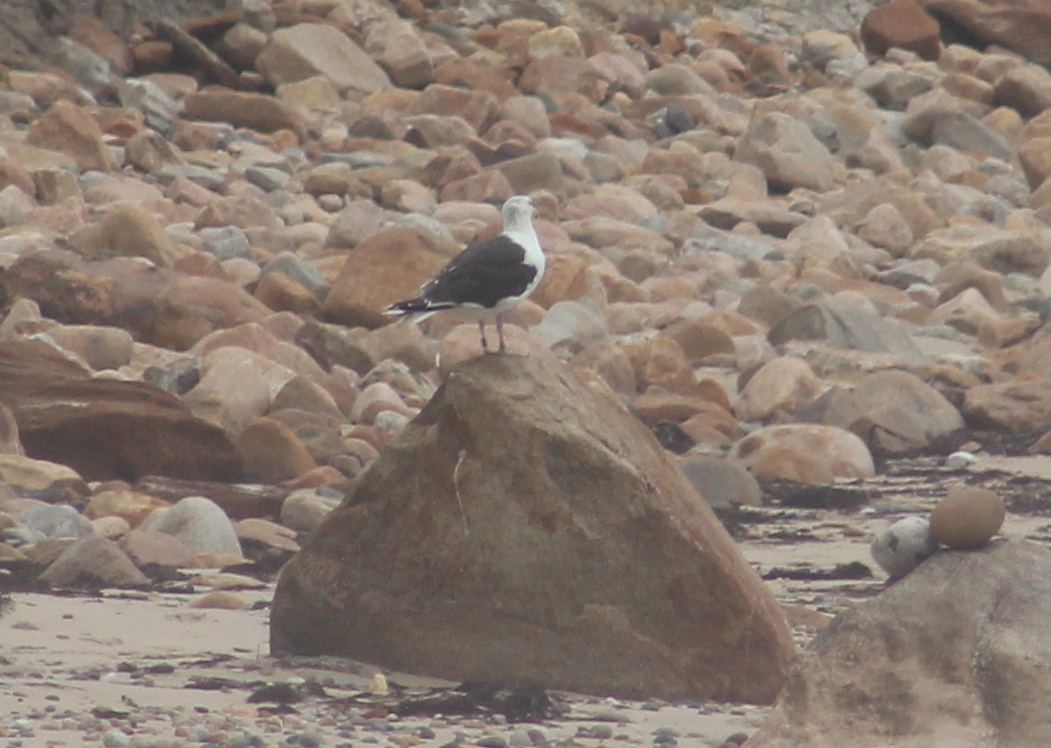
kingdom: Animalia
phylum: Chordata
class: Aves
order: Charadriiformes
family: Laridae
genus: Larus
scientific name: Larus marinus
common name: Great black-backed gull
